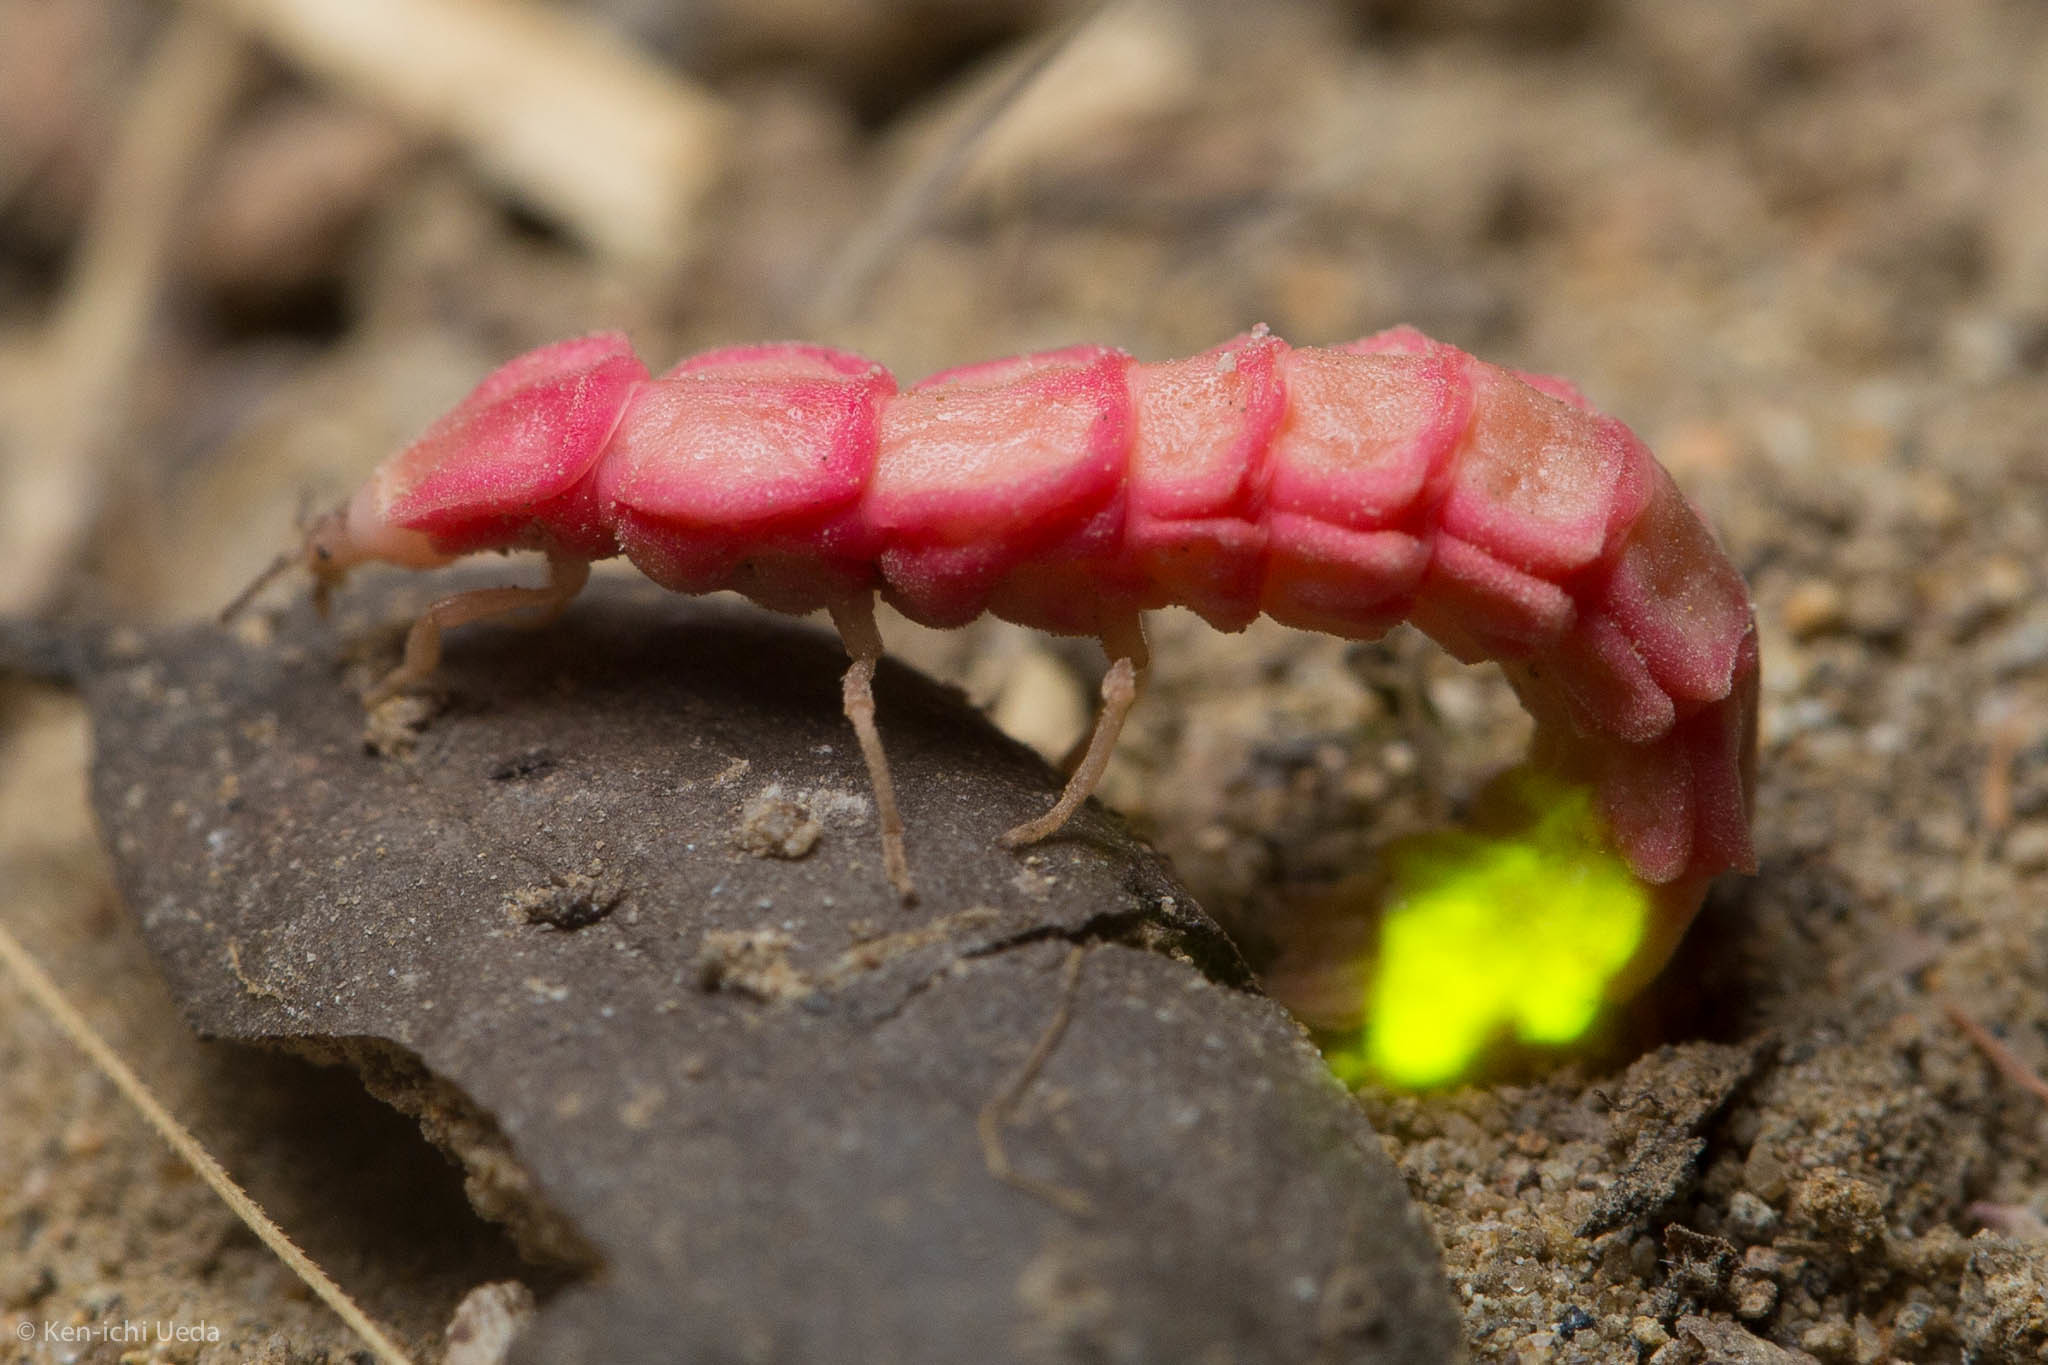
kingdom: Animalia
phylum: Arthropoda
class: Insecta
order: Coleoptera
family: Lampyridae
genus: Microphotus
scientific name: Microphotus angustus
